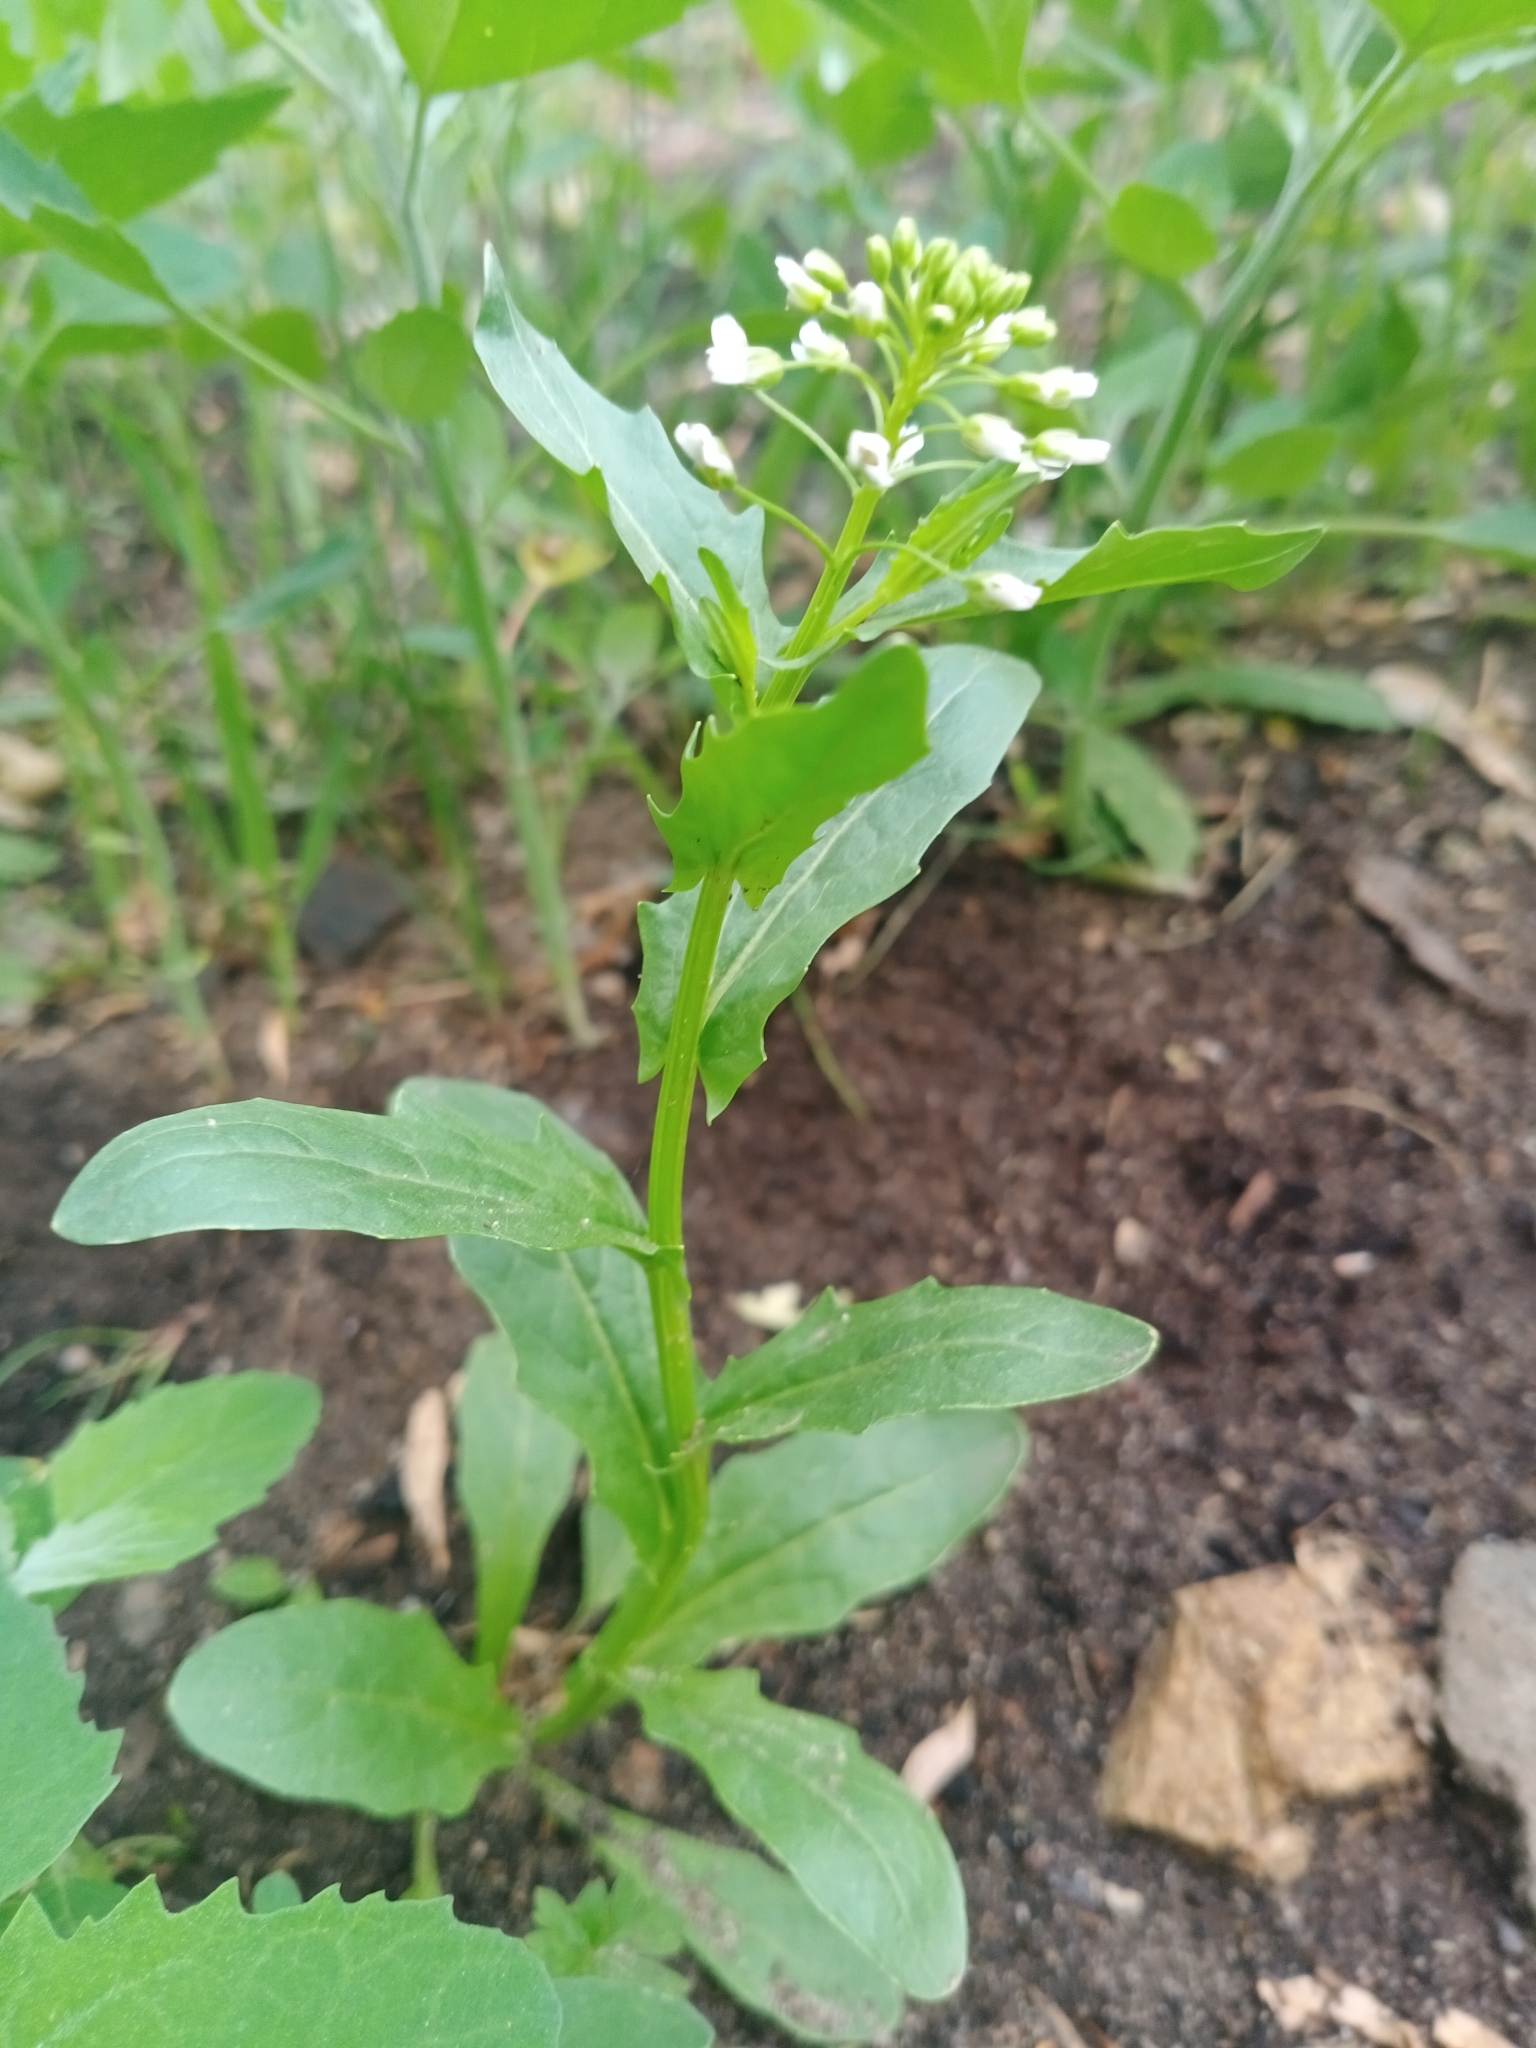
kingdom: Plantae
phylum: Tracheophyta
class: Magnoliopsida
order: Brassicales
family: Brassicaceae
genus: Thlaspi
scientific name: Thlaspi arvense
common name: Field pennycress
